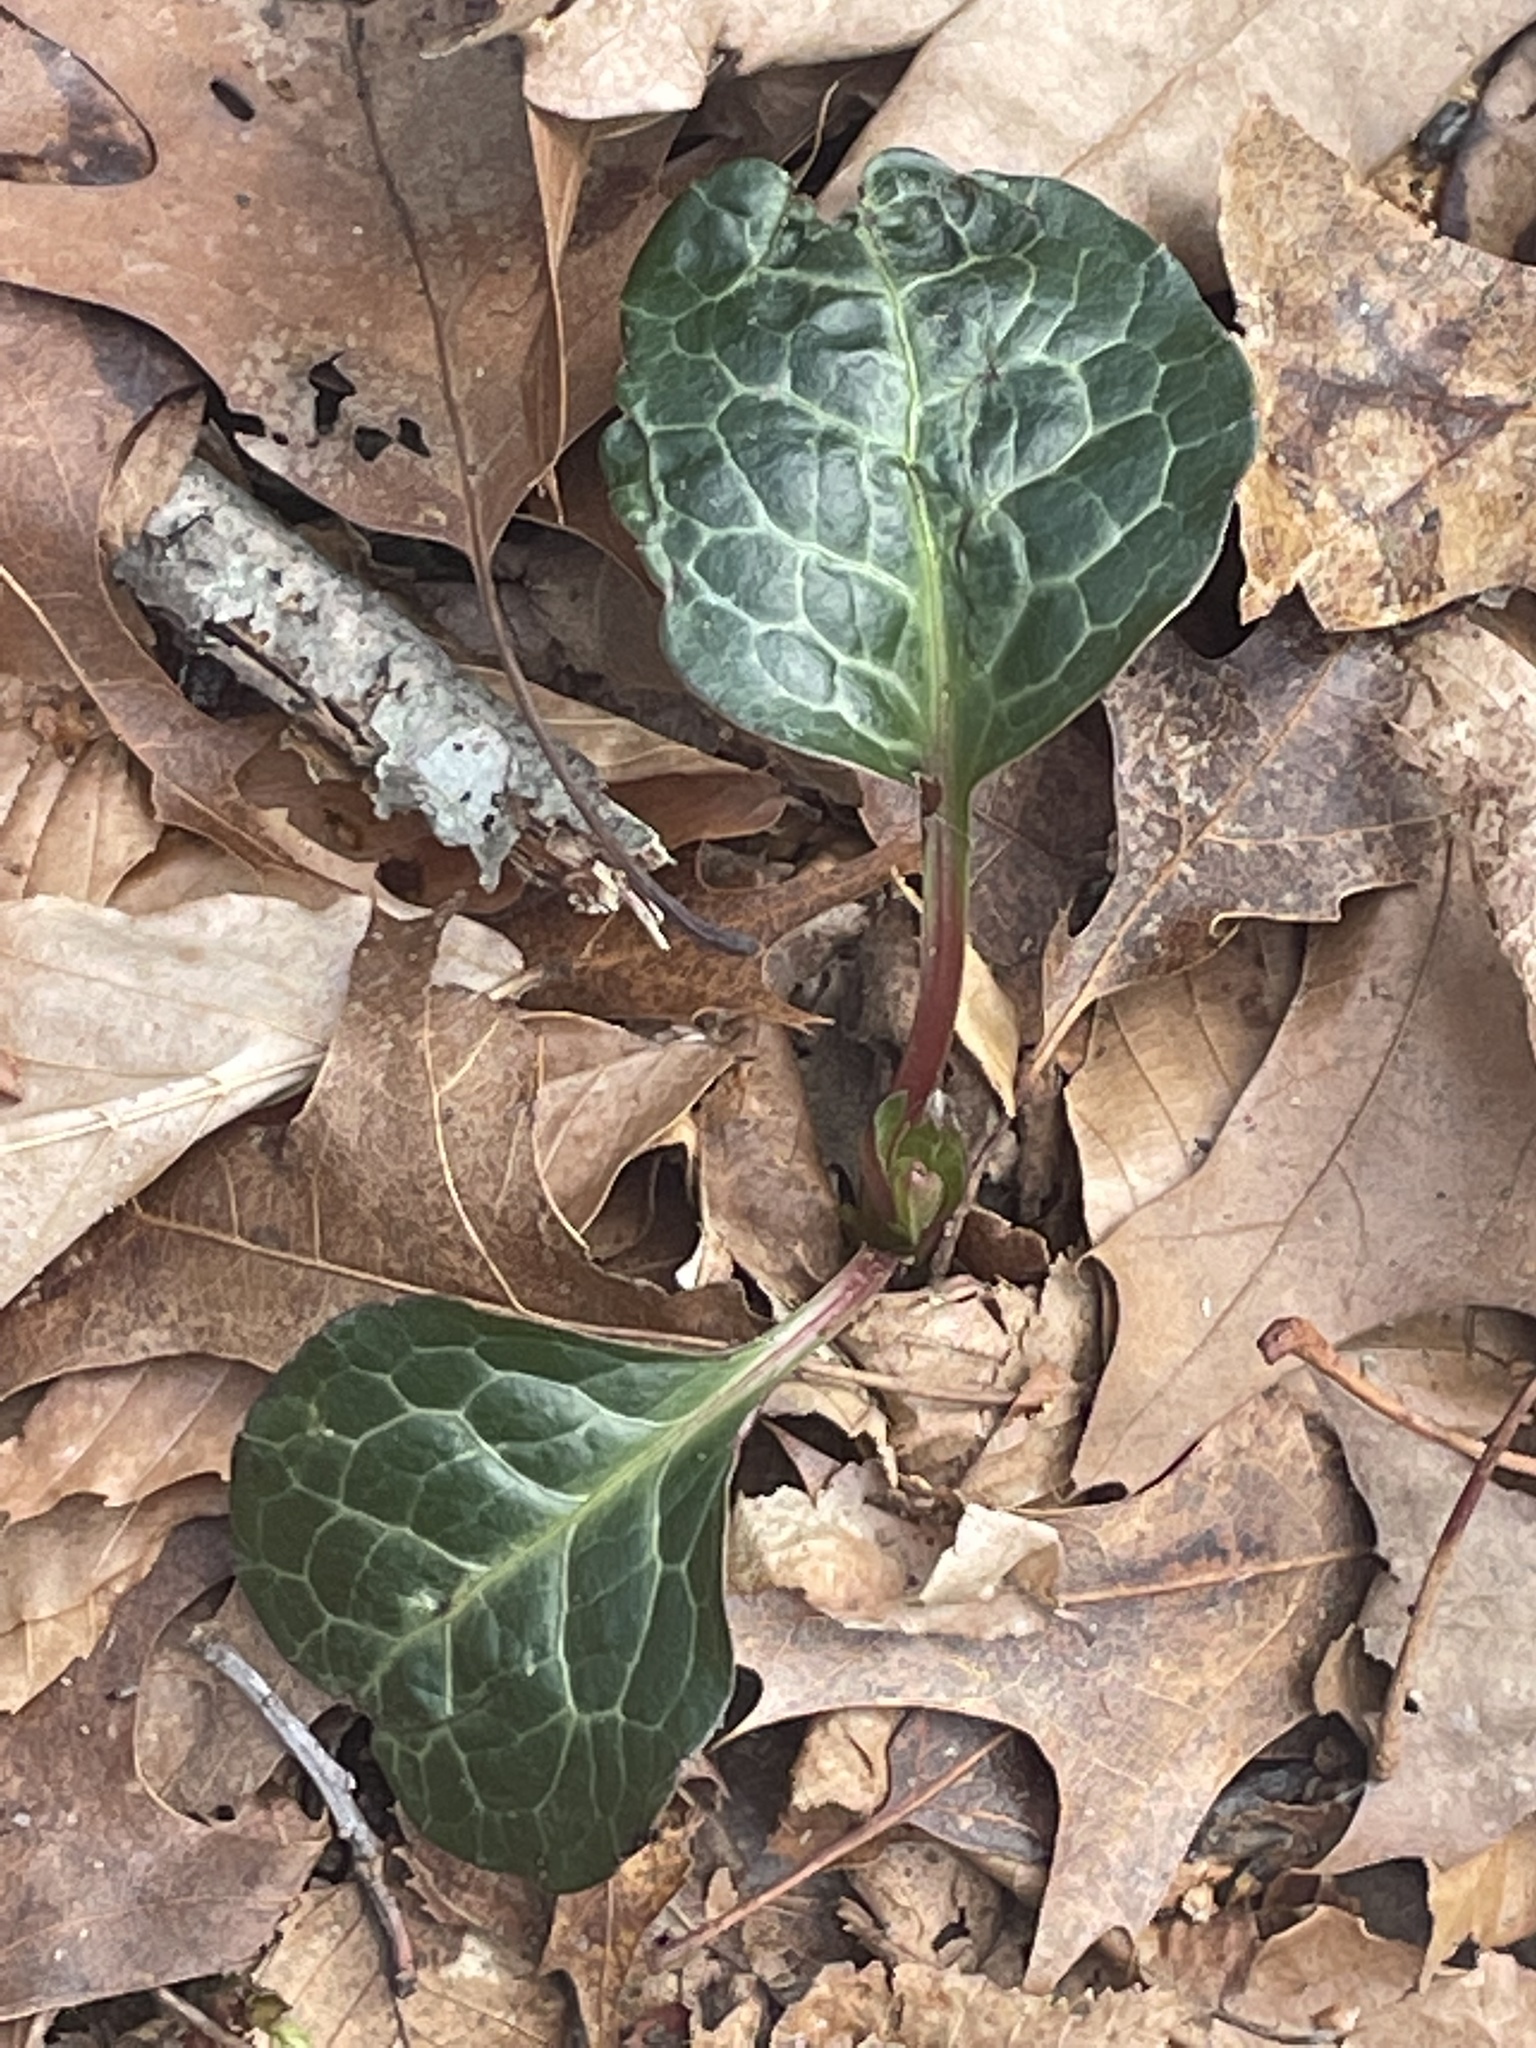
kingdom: Plantae
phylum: Tracheophyta
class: Magnoliopsida
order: Ericales
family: Ericaceae
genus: Pyrola
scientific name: Pyrola americana
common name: American wintergreen
